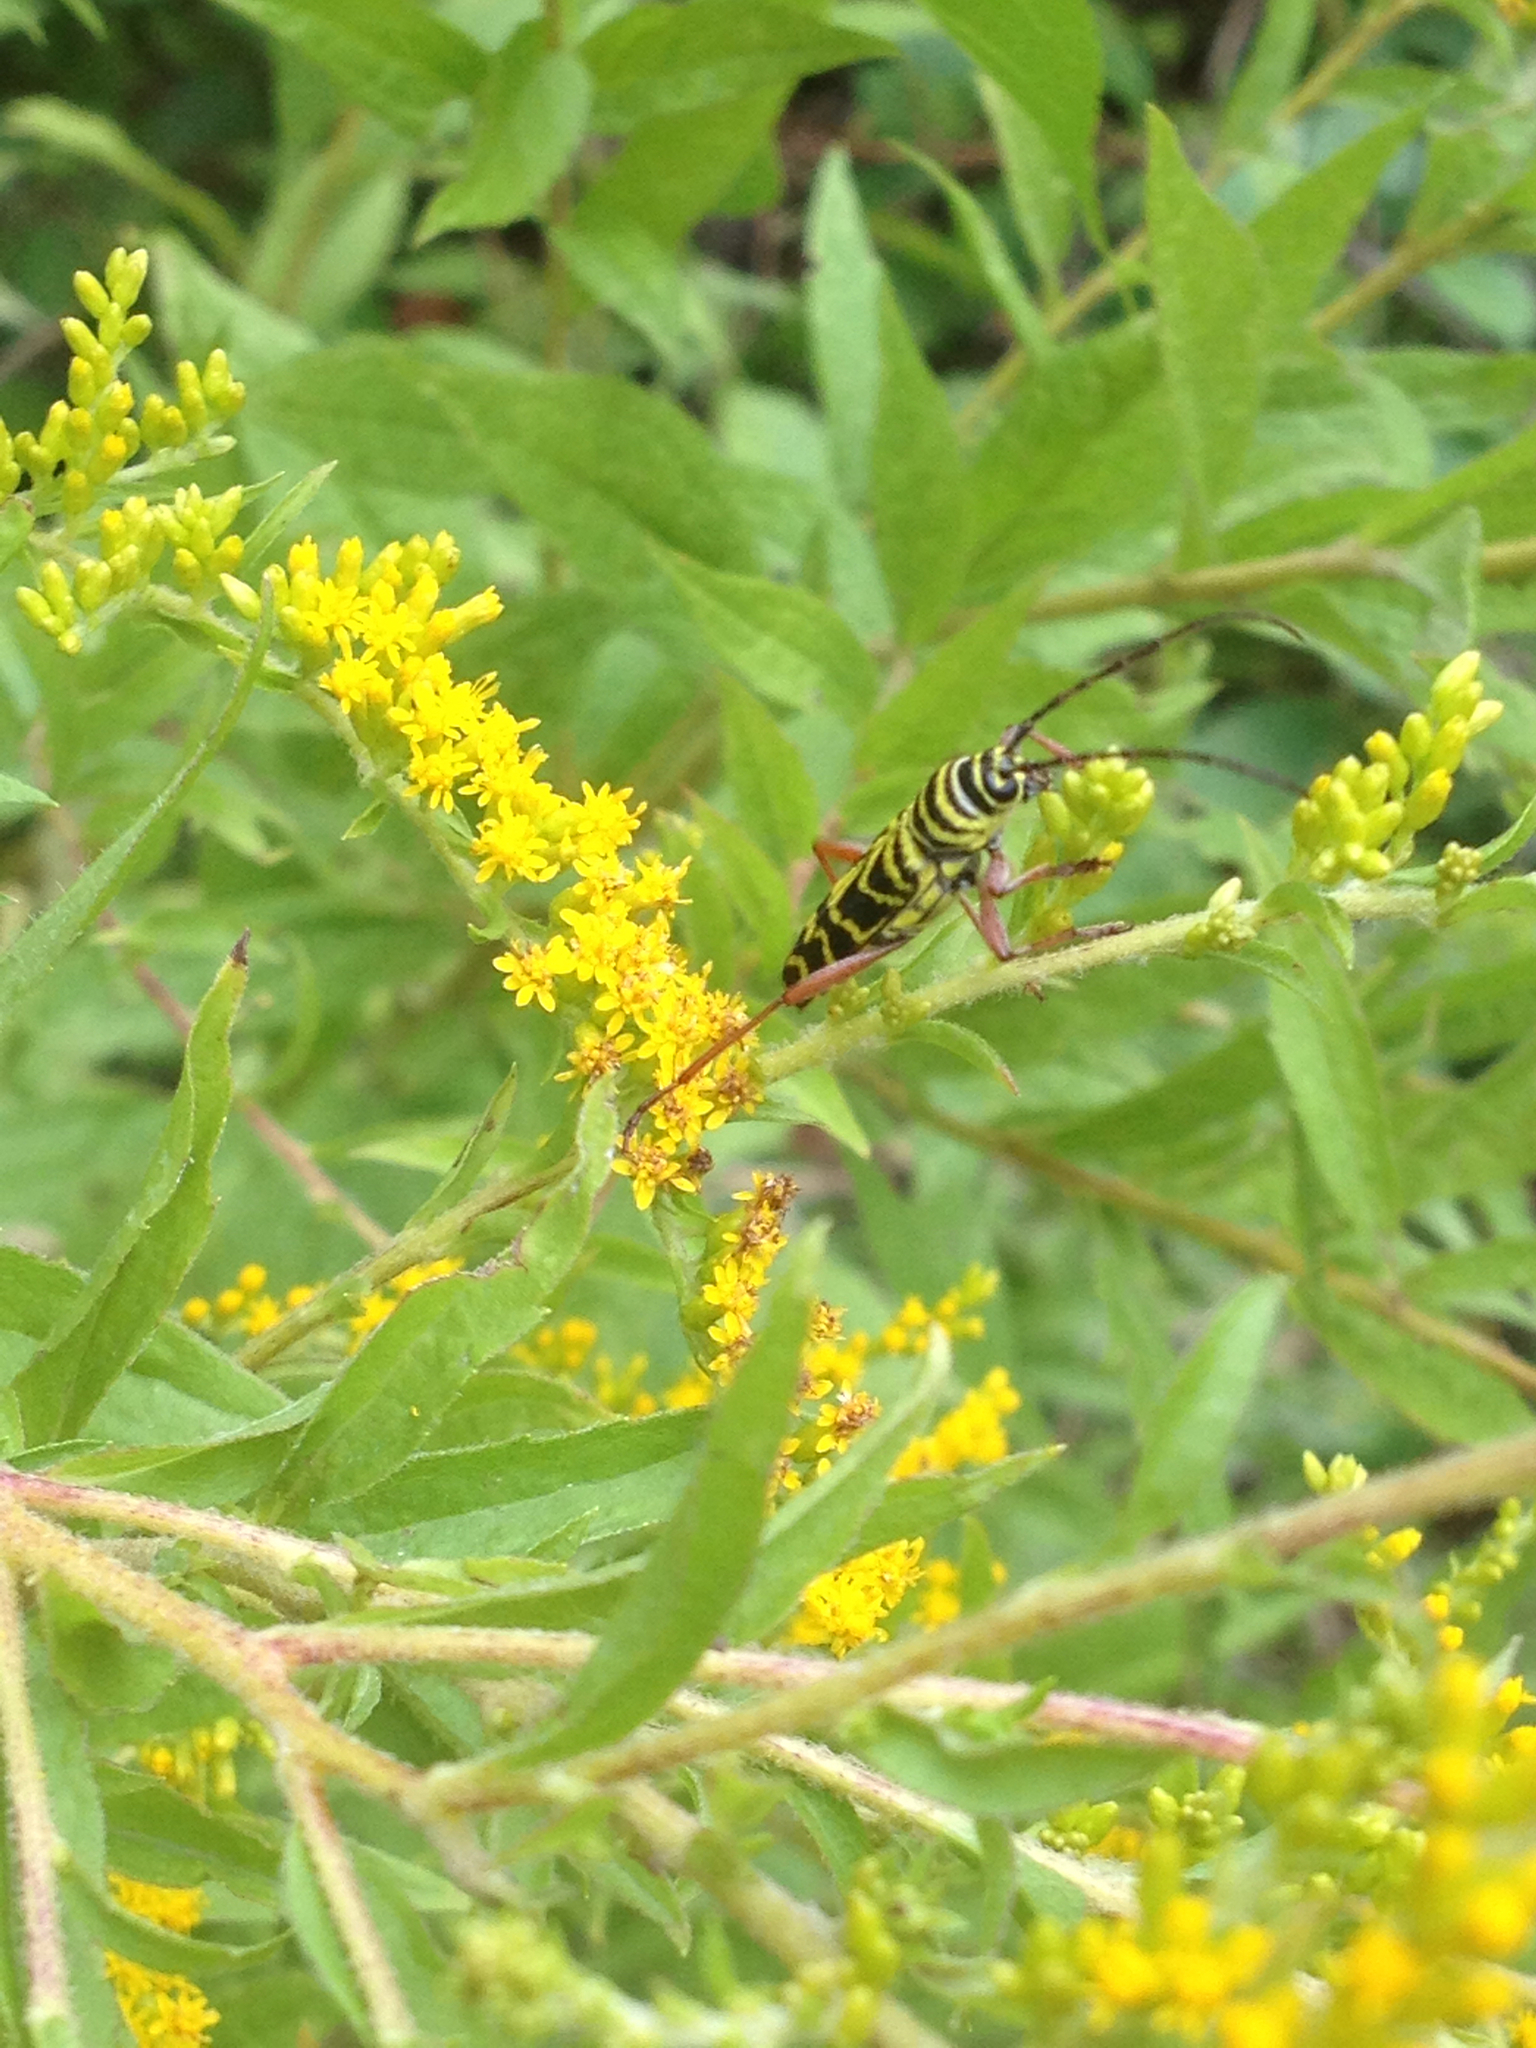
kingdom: Animalia
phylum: Arthropoda
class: Insecta
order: Coleoptera
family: Cerambycidae
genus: Megacyllene
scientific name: Megacyllene robiniae
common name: Locust borer
